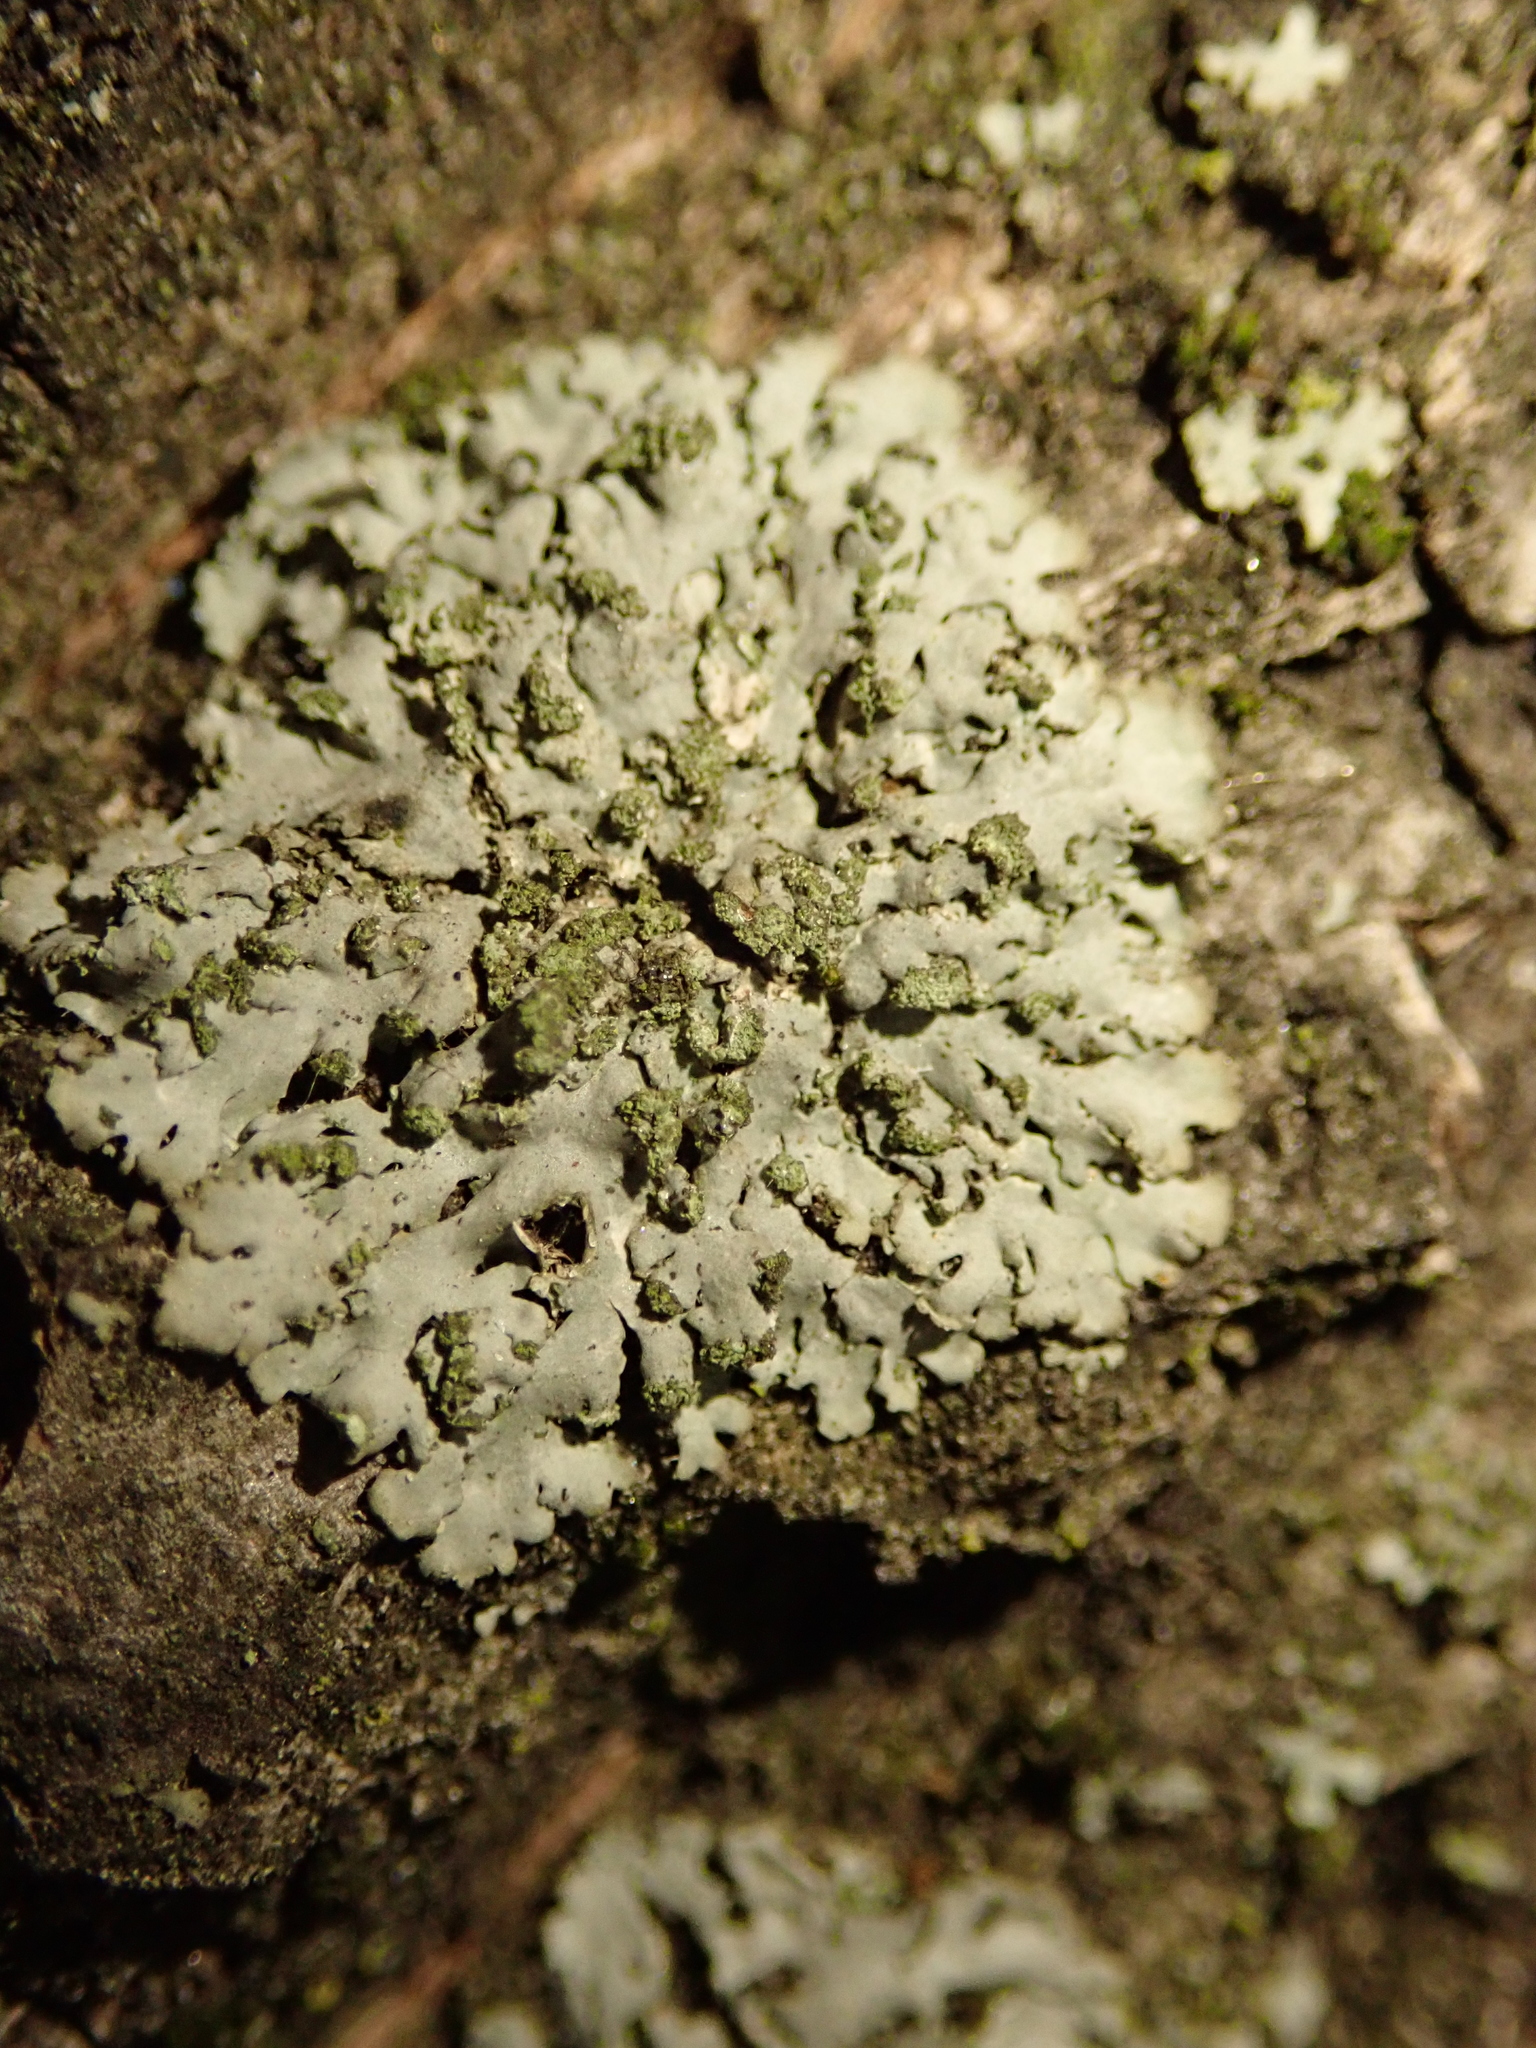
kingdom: Fungi
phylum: Ascomycota
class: Lecanoromycetes
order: Caliciales
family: Physciaceae
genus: Phaeophyscia
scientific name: Phaeophyscia orbicularis
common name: Mealy shadow lichen
